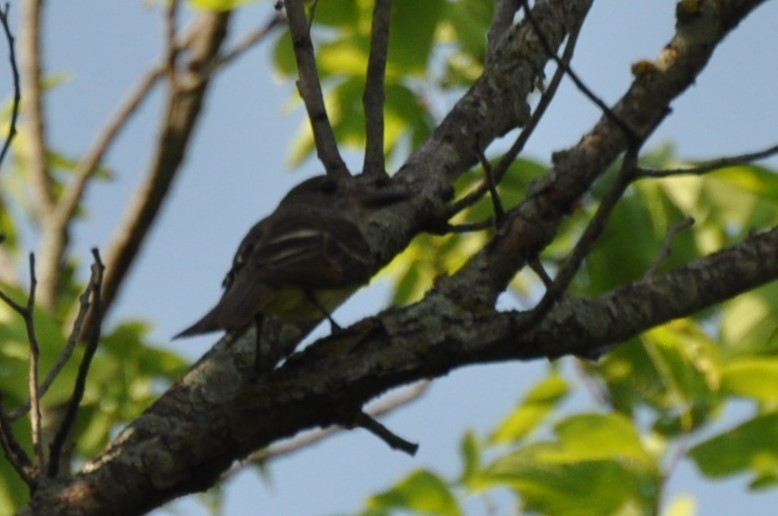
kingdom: Animalia
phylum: Chordata
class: Aves
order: Passeriformes
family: Tyrannidae
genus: Myiarchus
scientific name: Myiarchus crinitus
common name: Great crested flycatcher
